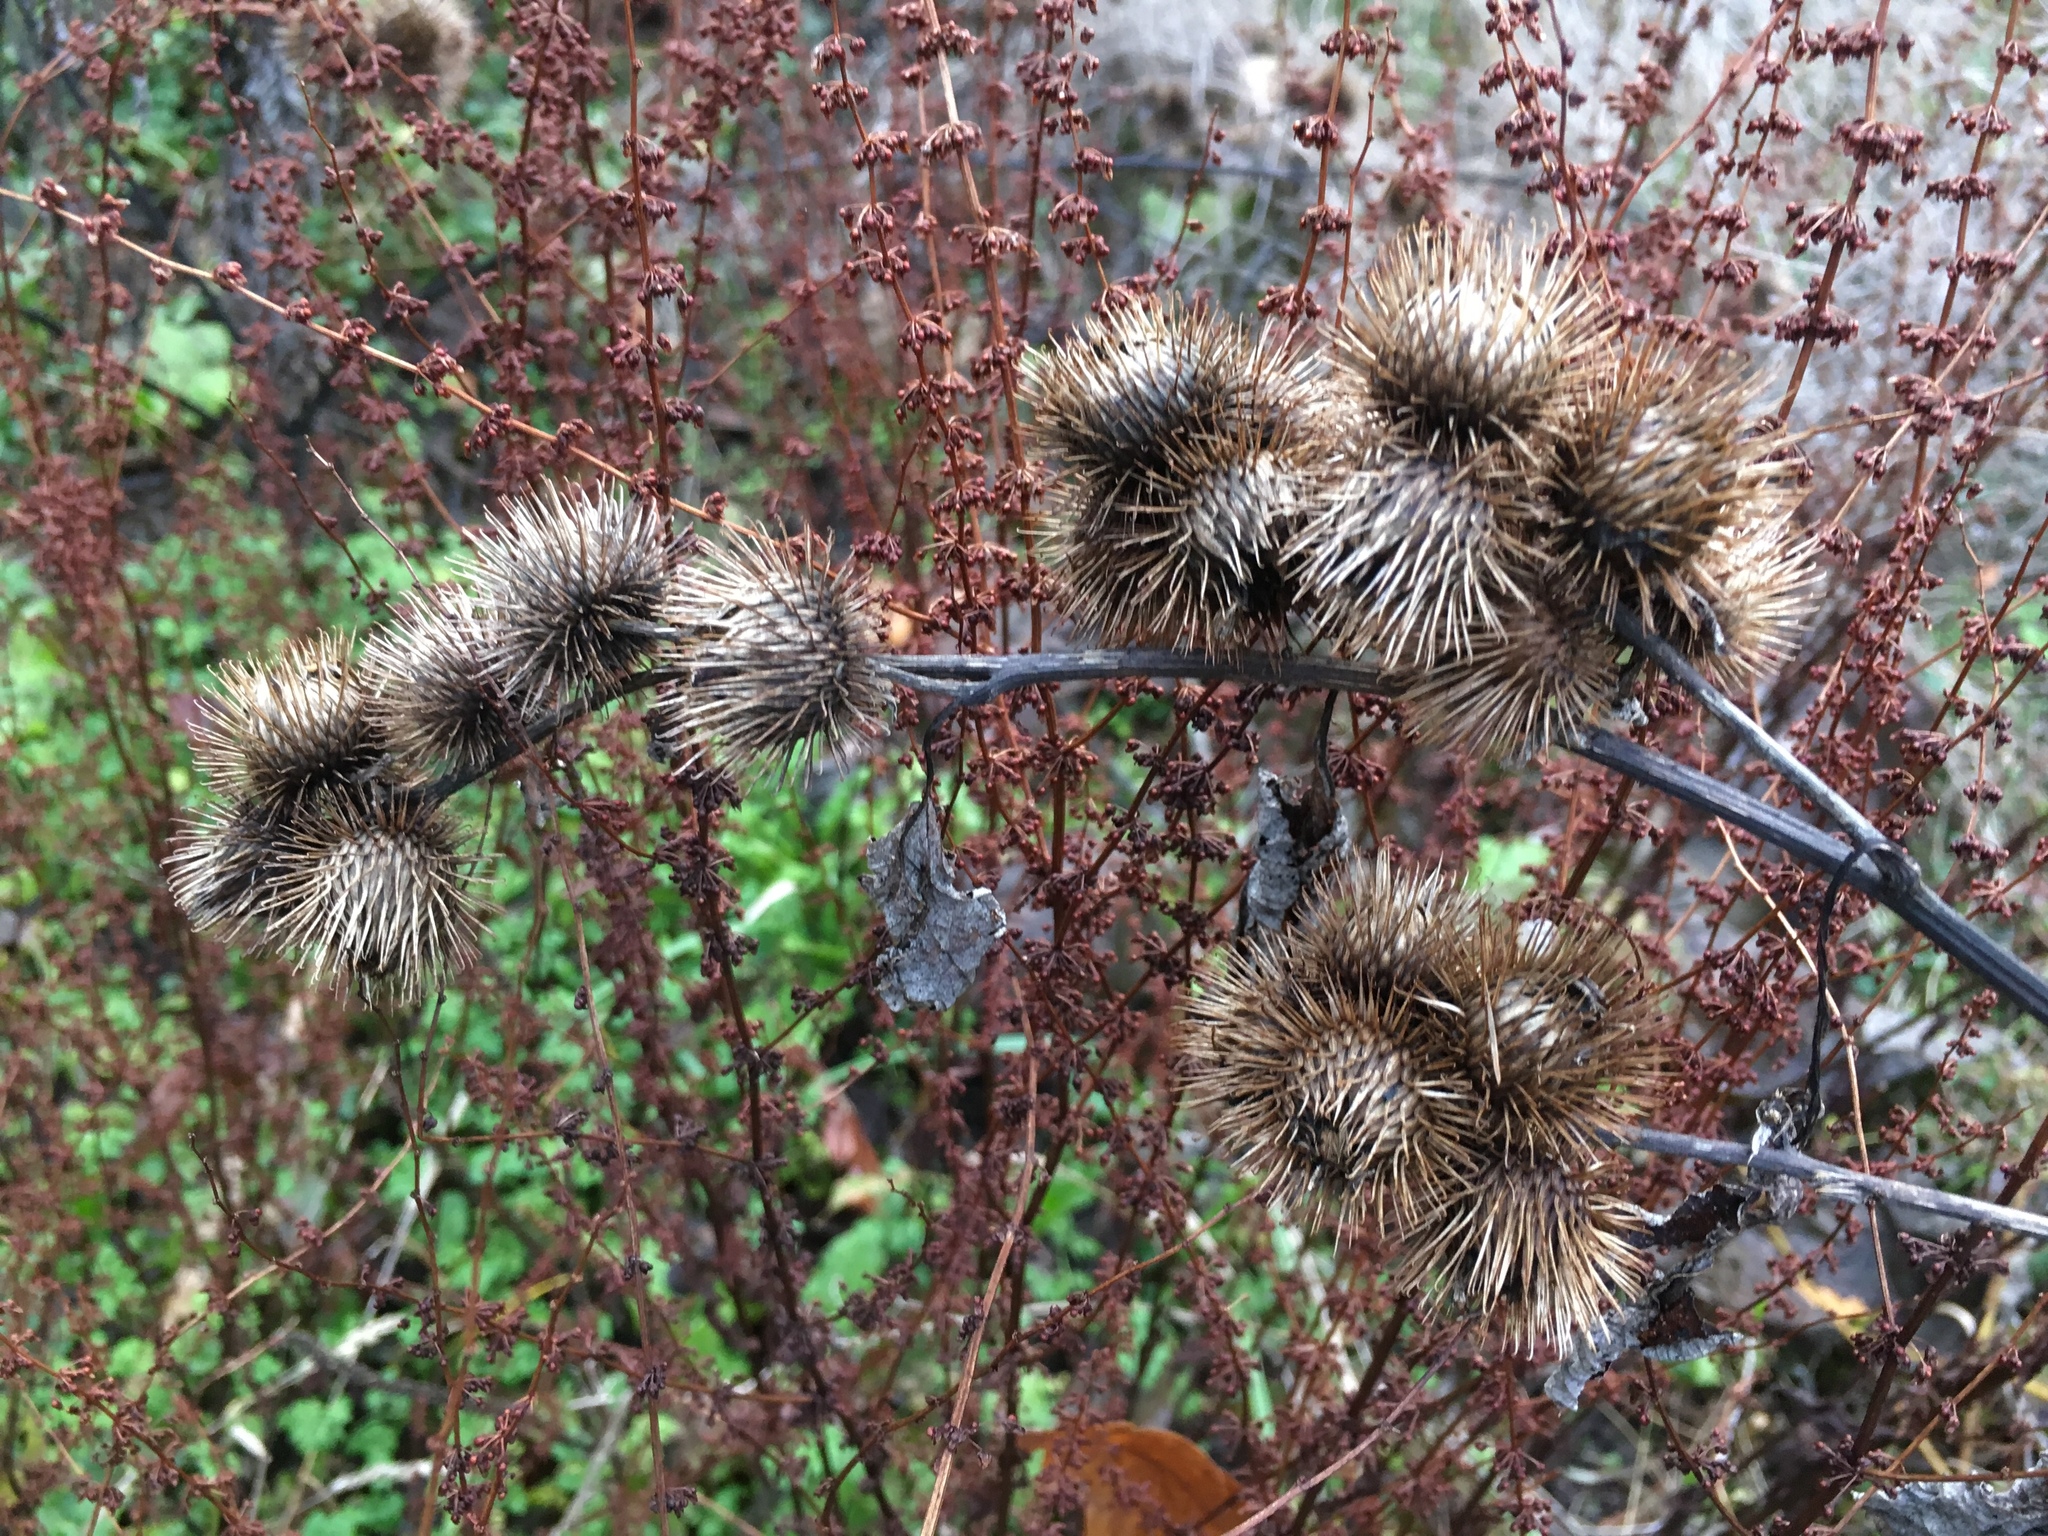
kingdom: Plantae
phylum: Tracheophyta
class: Magnoliopsida
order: Asterales
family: Asteraceae
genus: Arctium
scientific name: Arctium nemorosum
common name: Wood burdock
